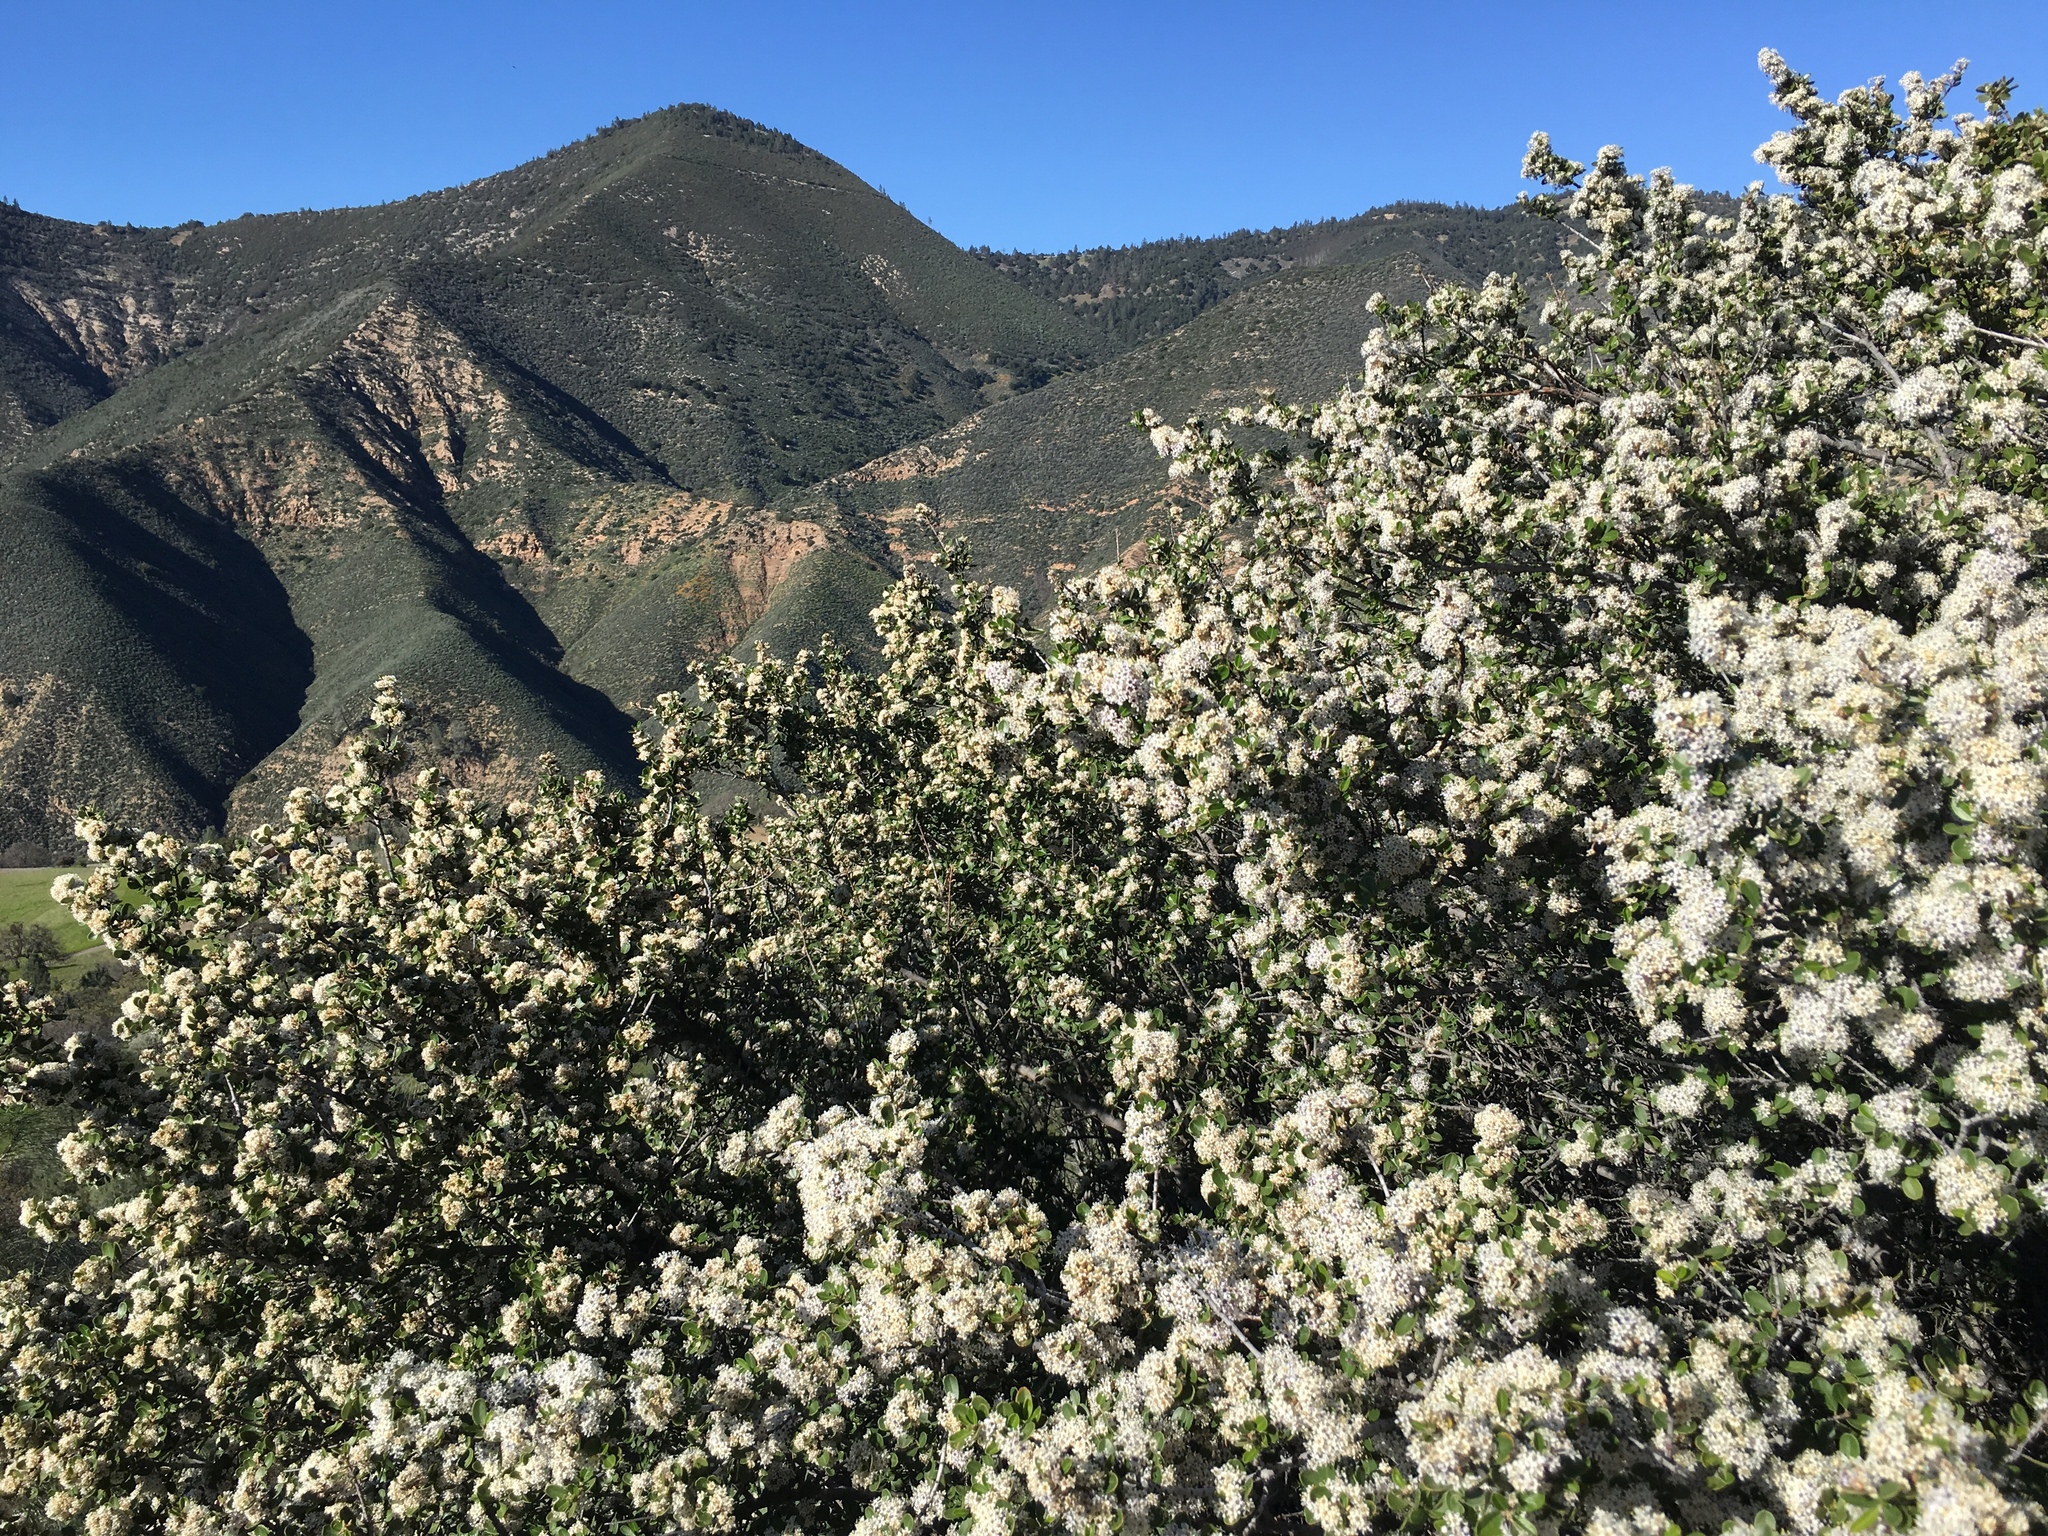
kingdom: Plantae
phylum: Tracheophyta
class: Magnoliopsida
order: Rosales
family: Rhamnaceae
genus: Ceanothus
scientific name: Ceanothus cuneatus
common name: Cuneate ceanothus
